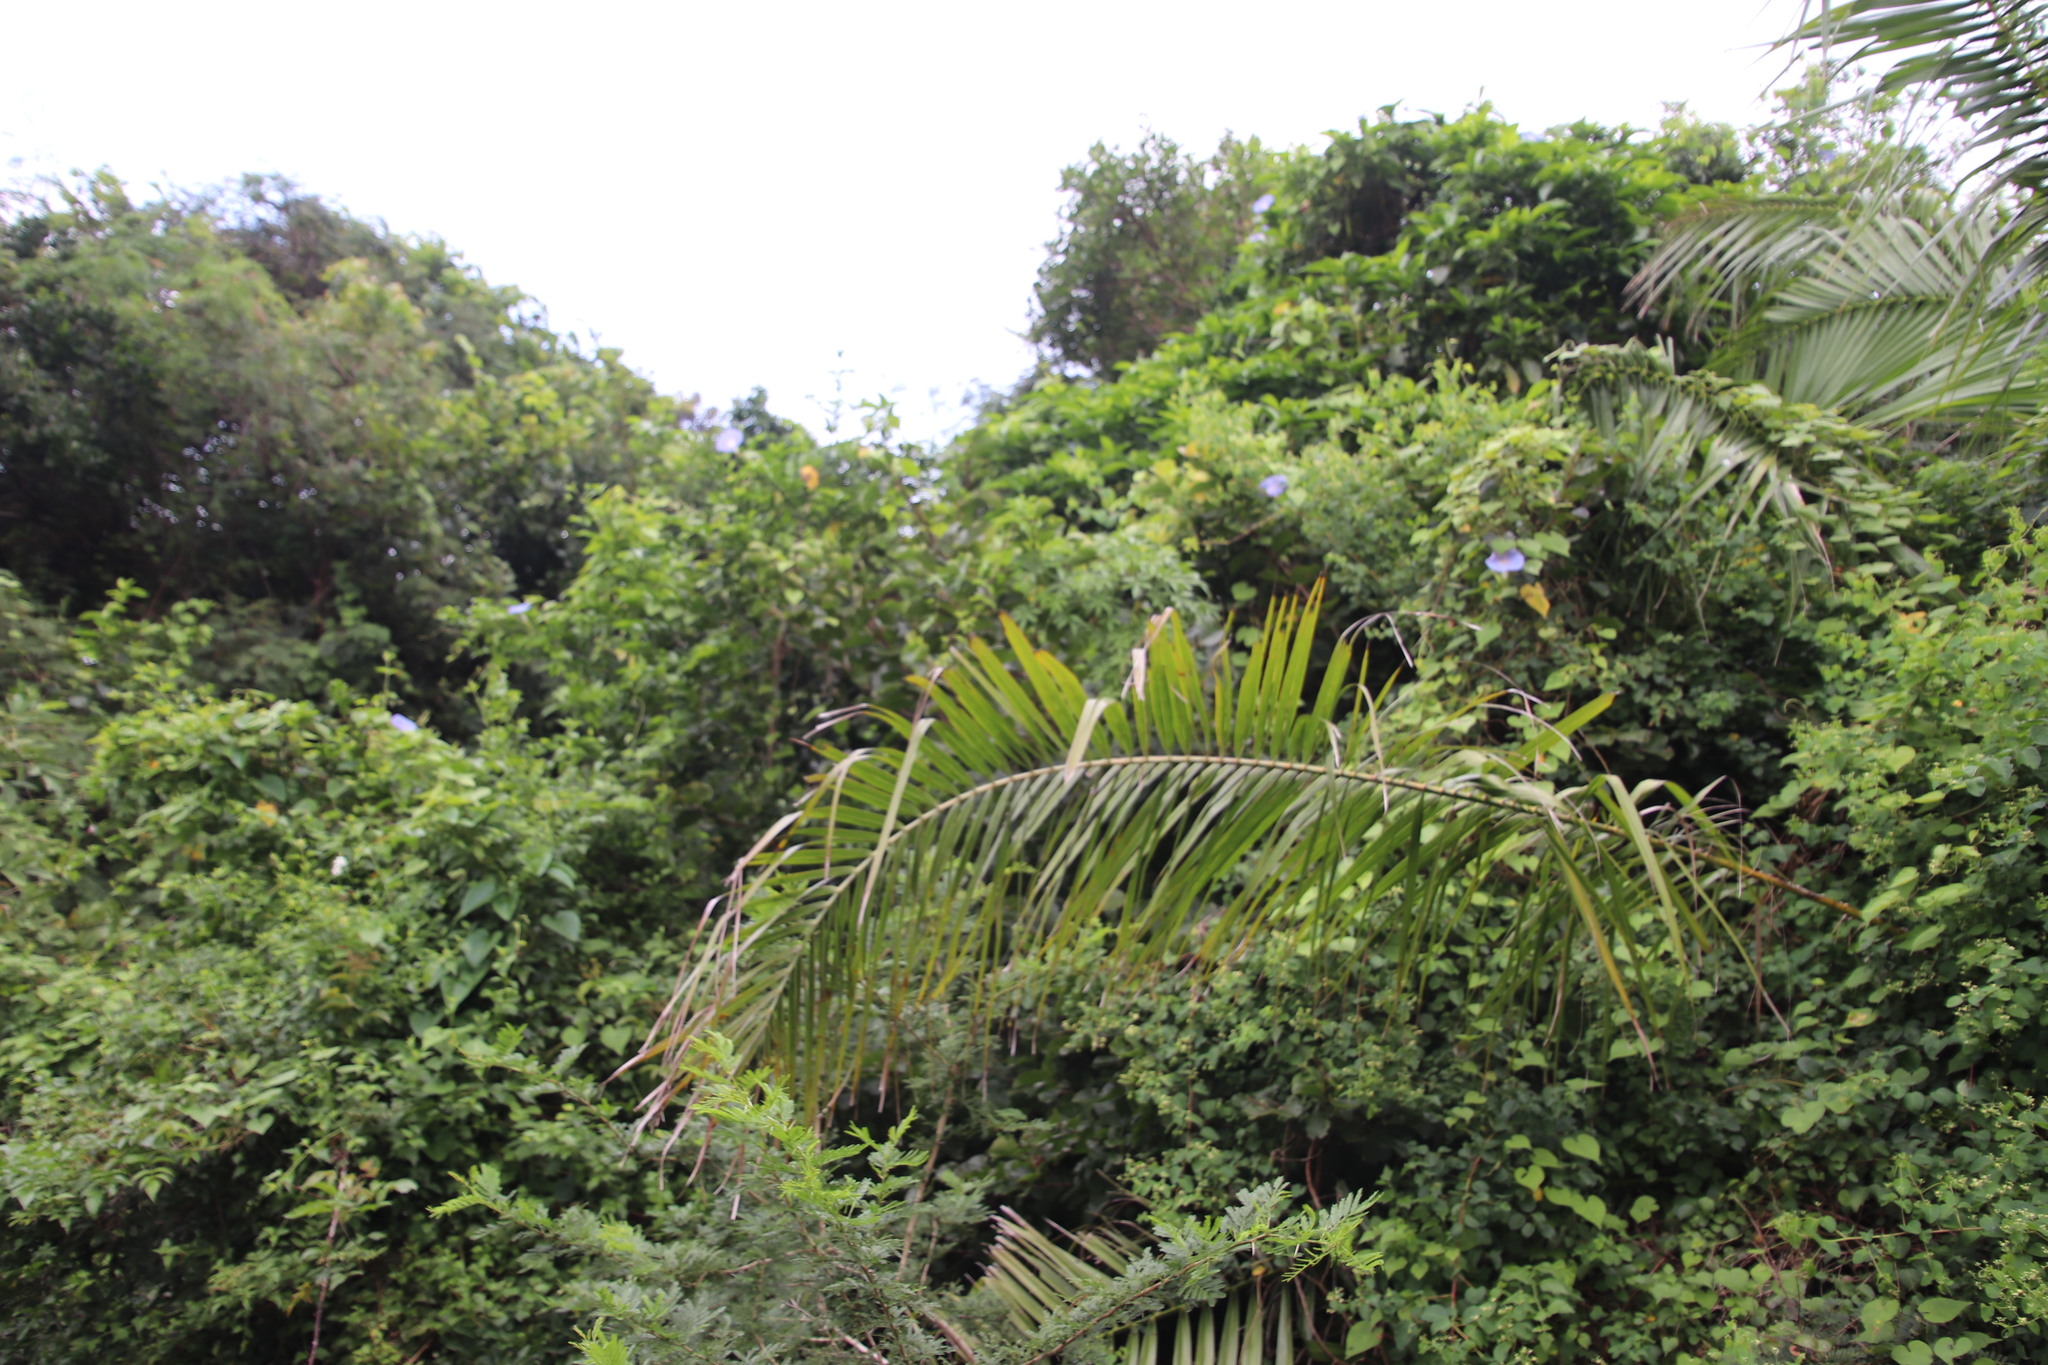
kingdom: Plantae
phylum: Tracheophyta
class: Liliopsida
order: Arecales
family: Arecaceae
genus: Phoenix
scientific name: Phoenix reclinata
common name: Senegal date palm
